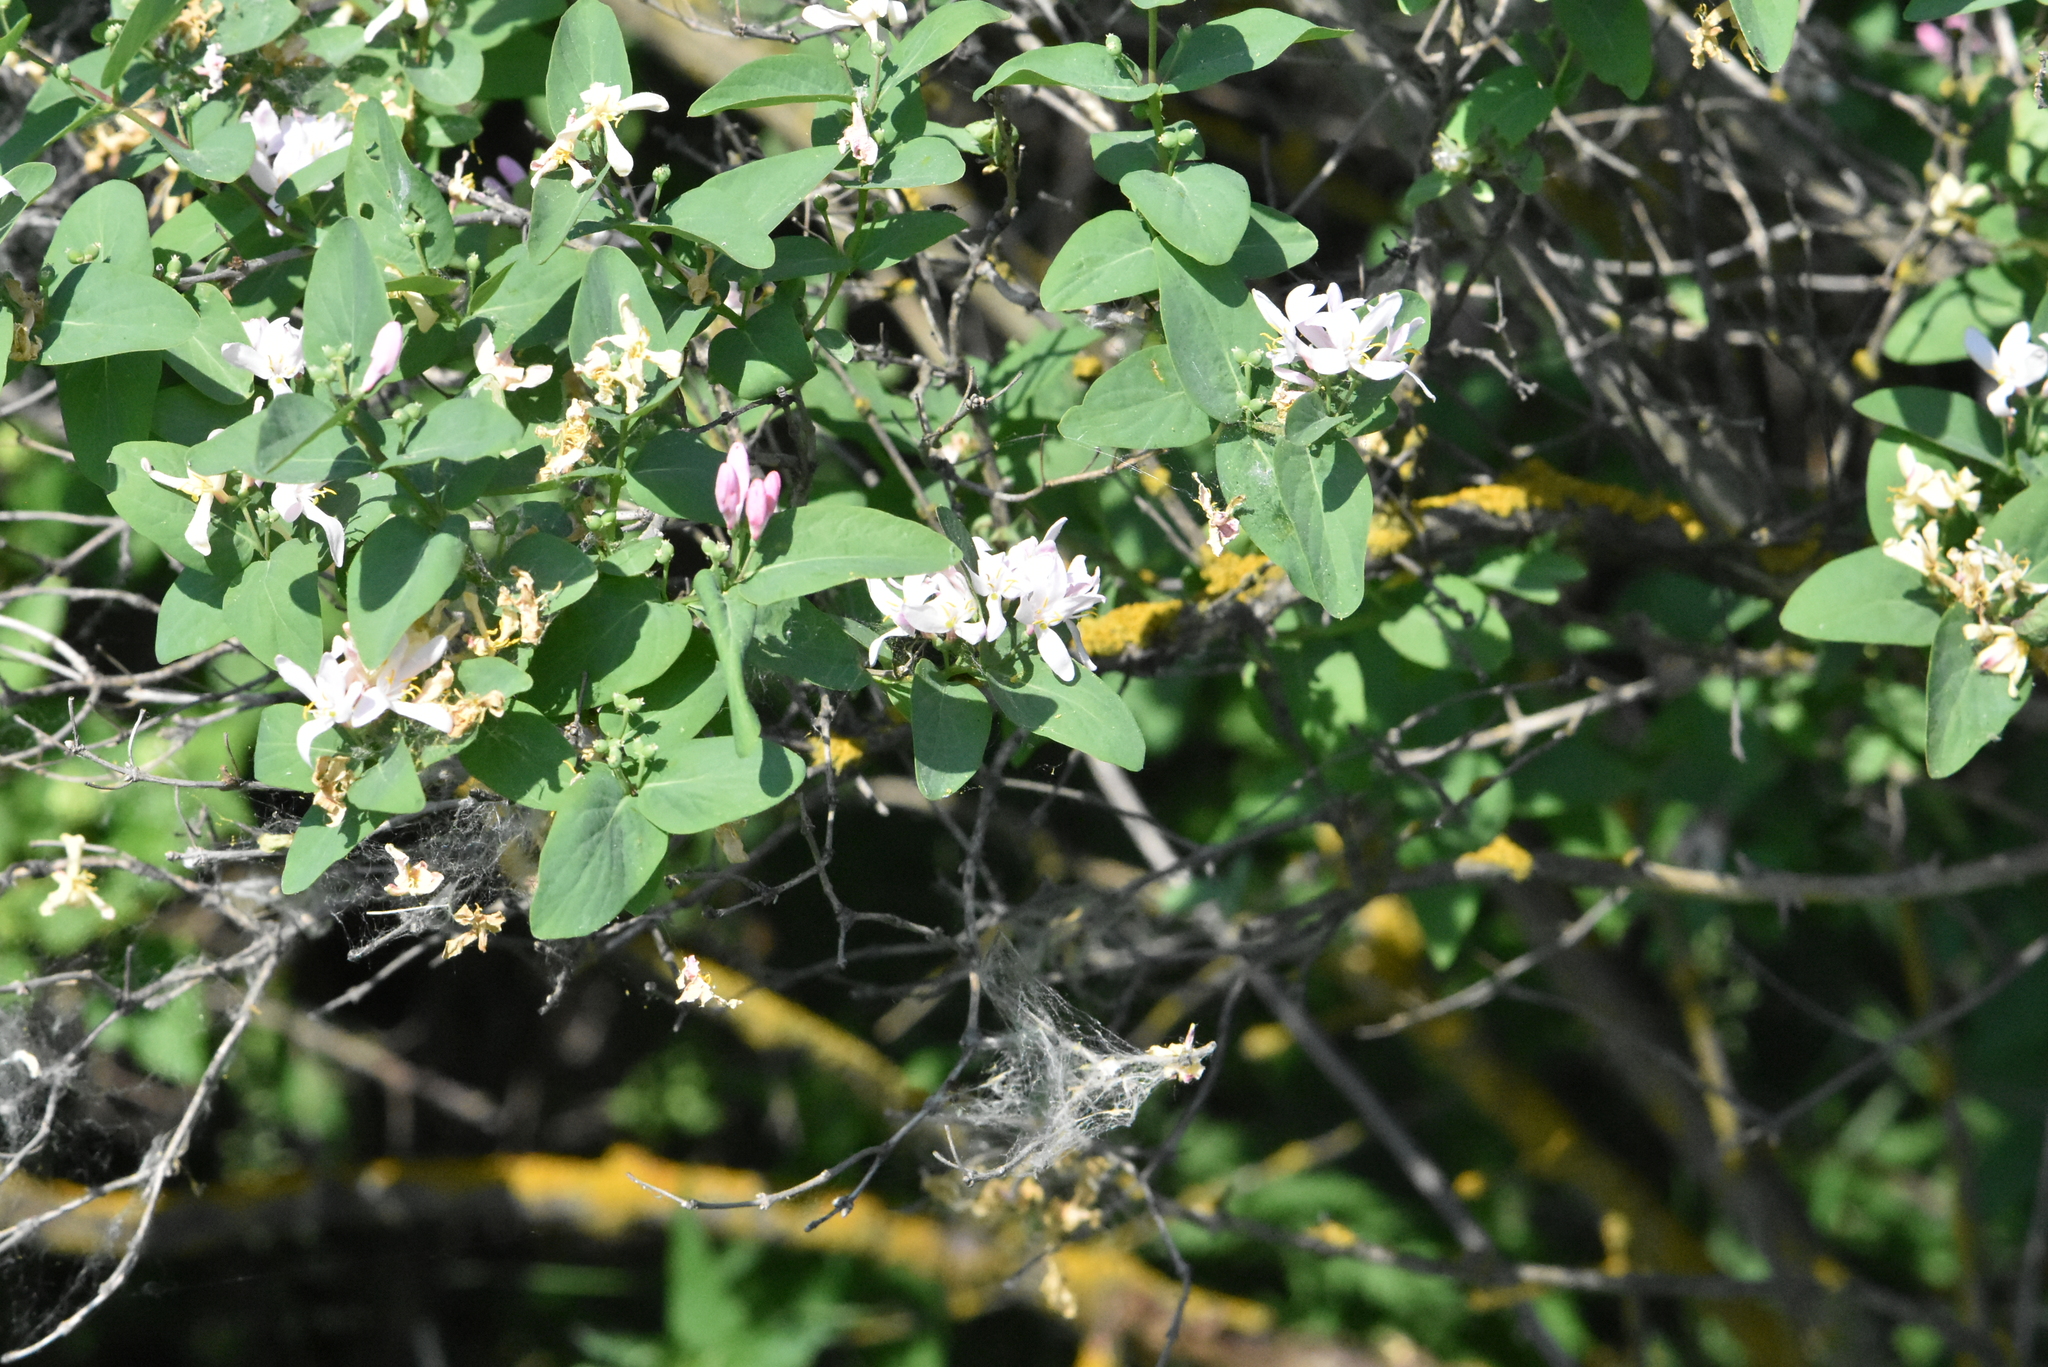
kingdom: Plantae
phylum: Tracheophyta
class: Magnoliopsida
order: Dipsacales
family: Caprifoliaceae
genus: Lonicera
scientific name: Lonicera tatarica
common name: Tatarian honeysuckle
